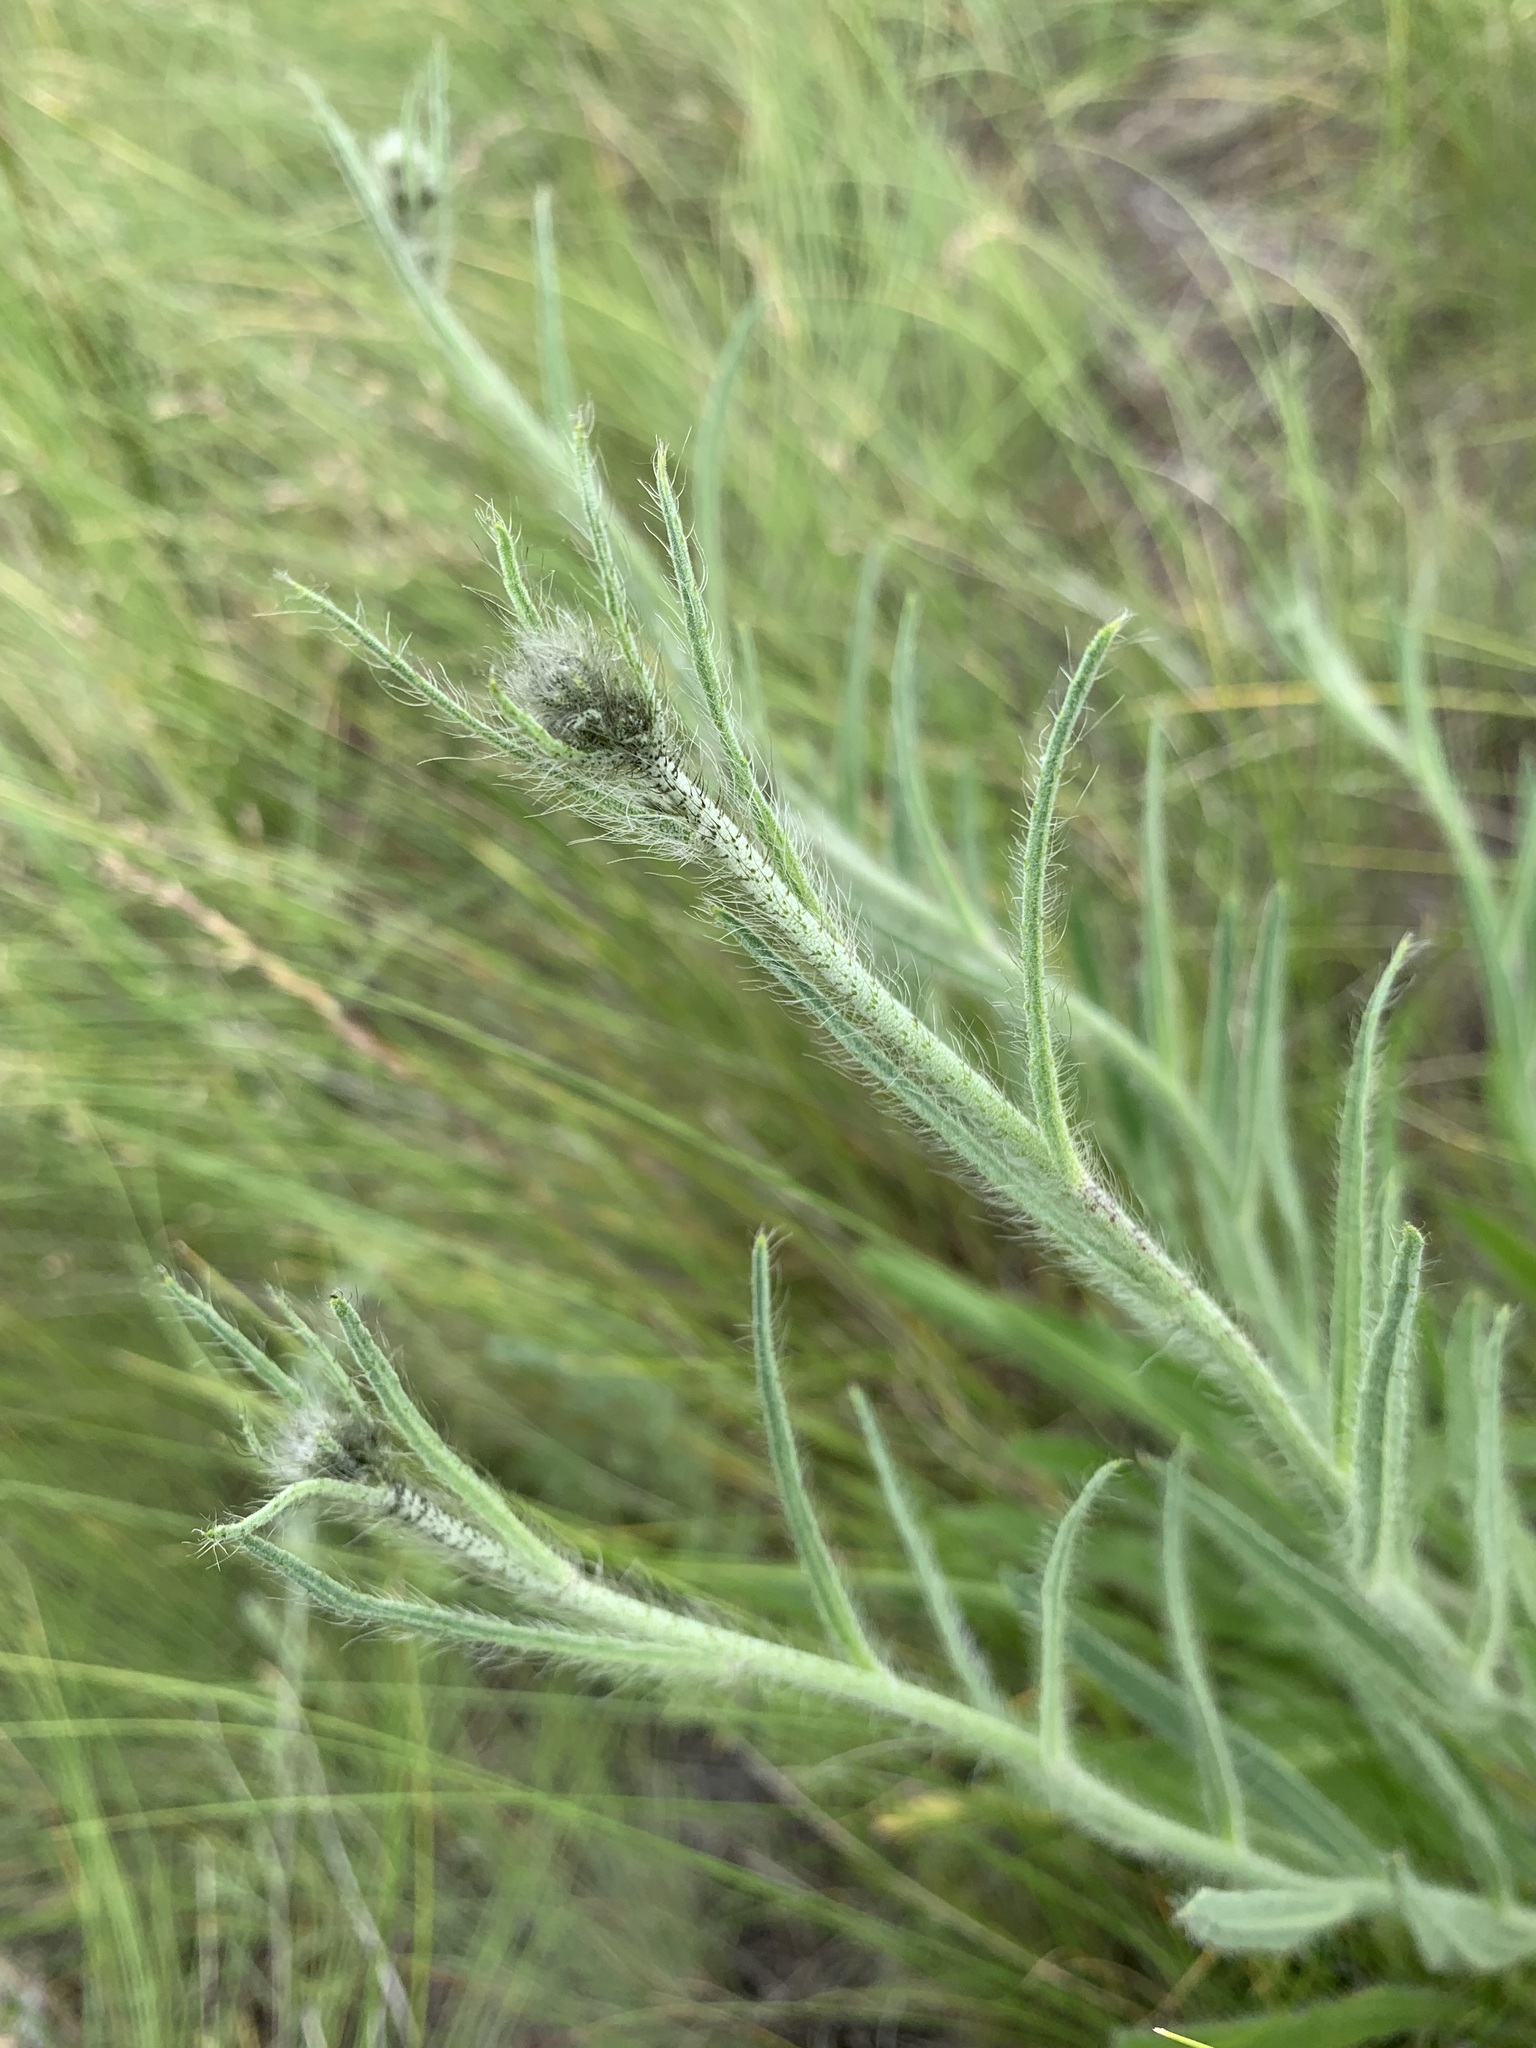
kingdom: Plantae
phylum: Tracheophyta
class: Magnoliopsida
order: Asterales
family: Asteraceae
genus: Pilosella
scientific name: Pilosella echioides
